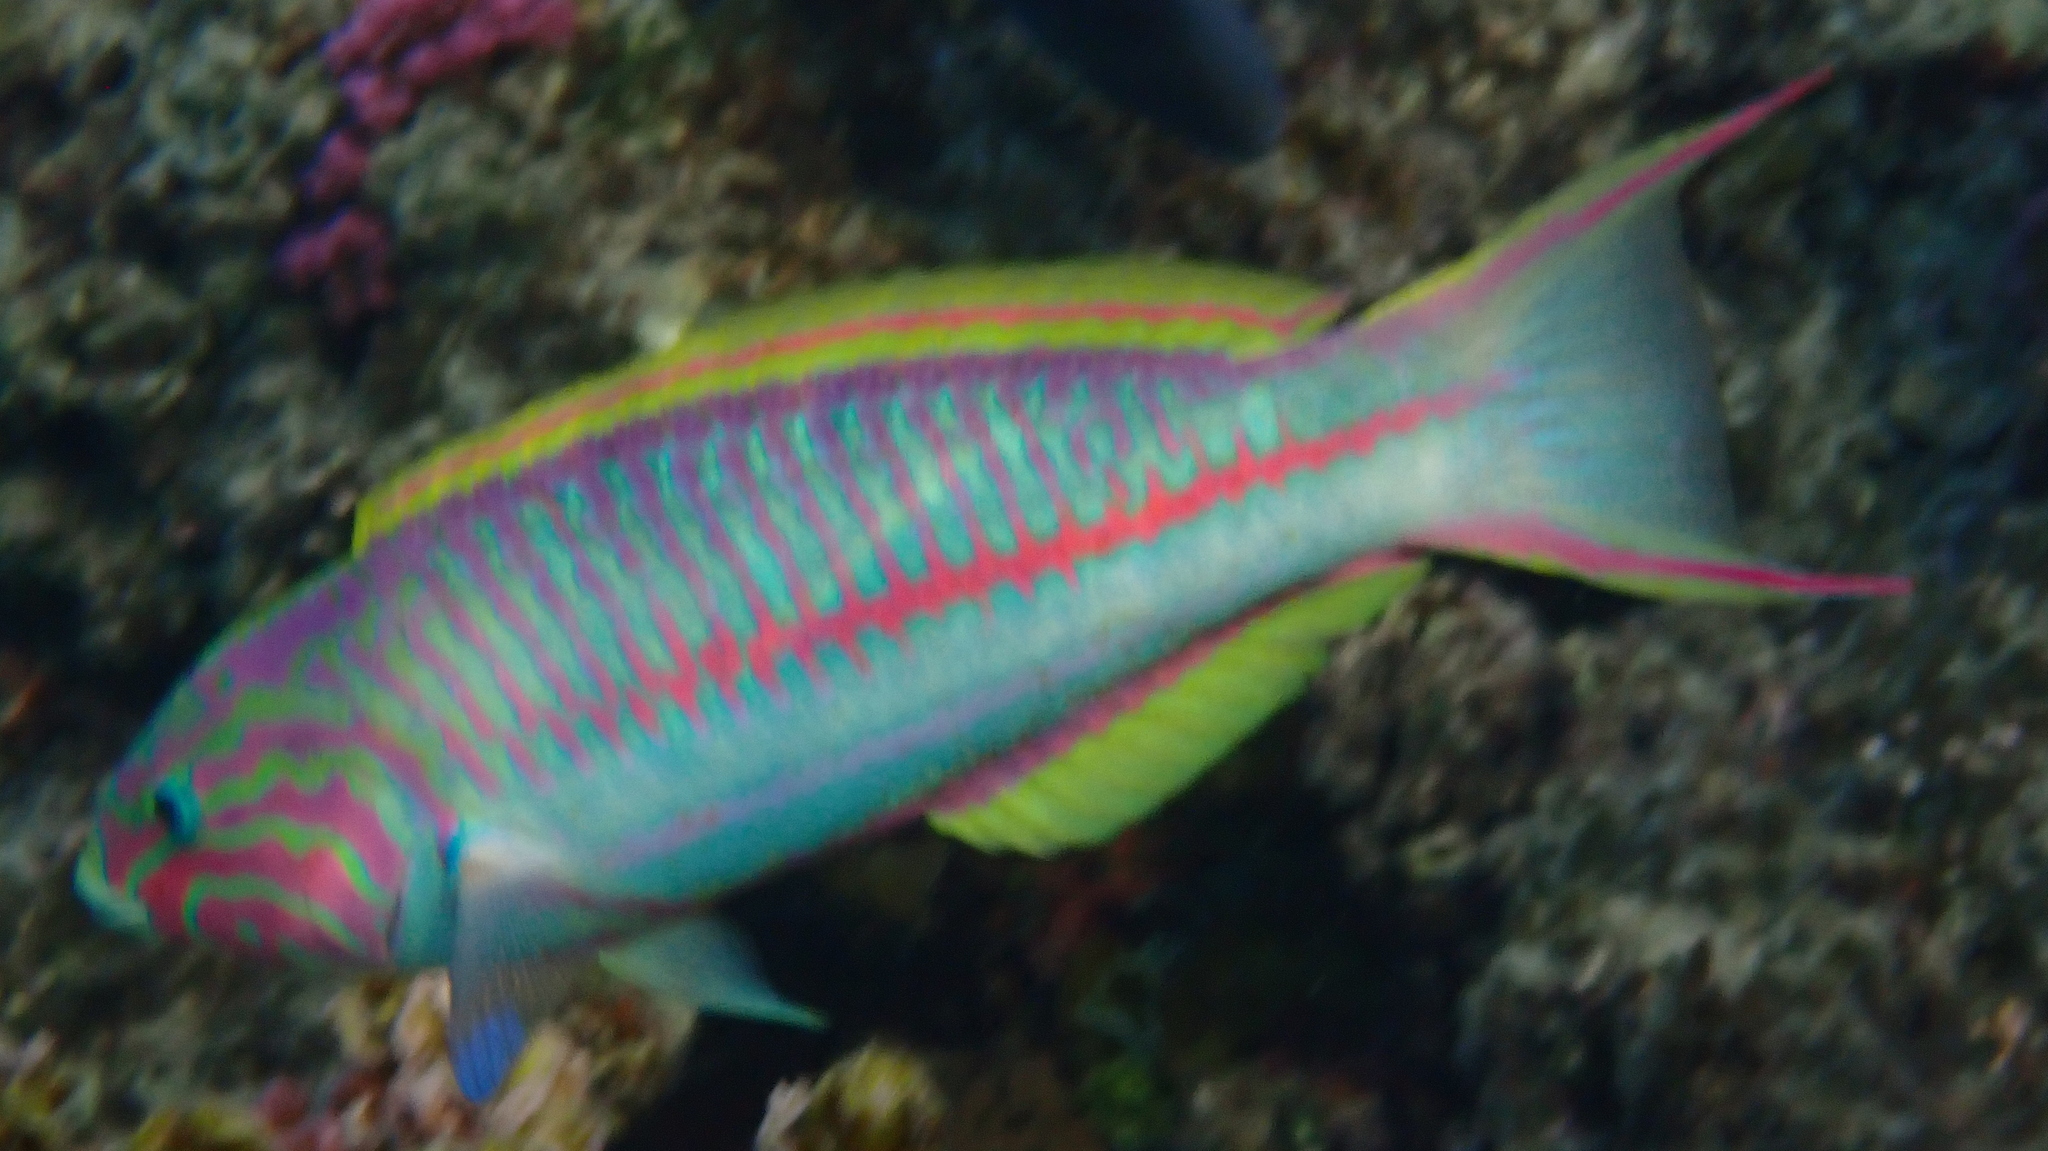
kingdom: Animalia
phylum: Chordata
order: Perciformes
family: Labridae
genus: Thalassoma
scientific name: Thalassoma rueppellii
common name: Klunzinger's wrasse
